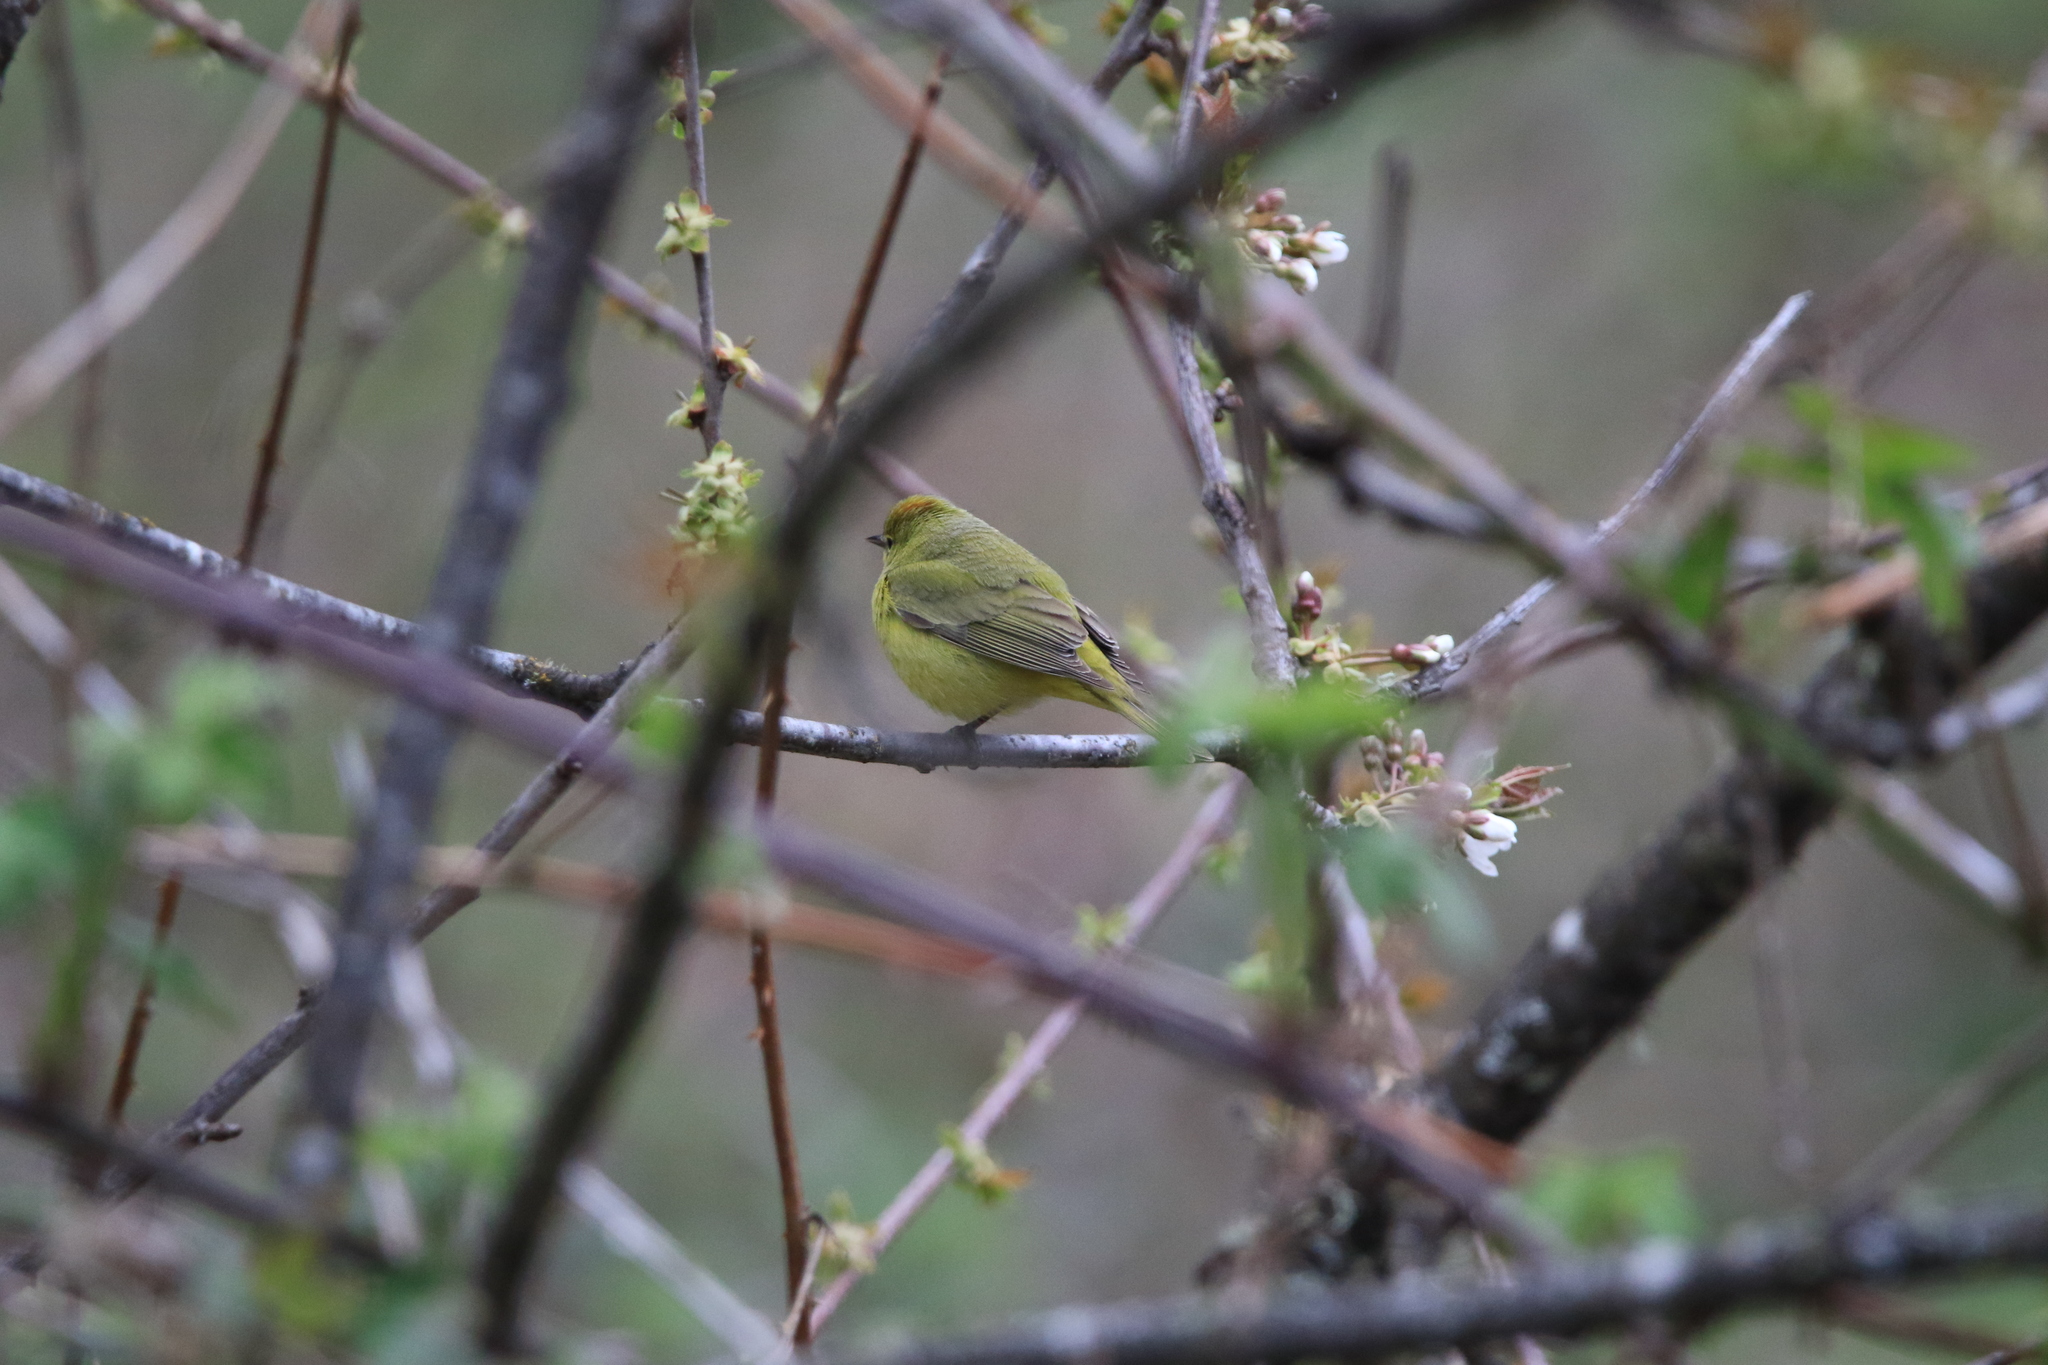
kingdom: Animalia
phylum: Chordata
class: Aves
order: Passeriformes
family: Parulidae
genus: Leiothlypis
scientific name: Leiothlypis celata
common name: Orange-crowned warbler
